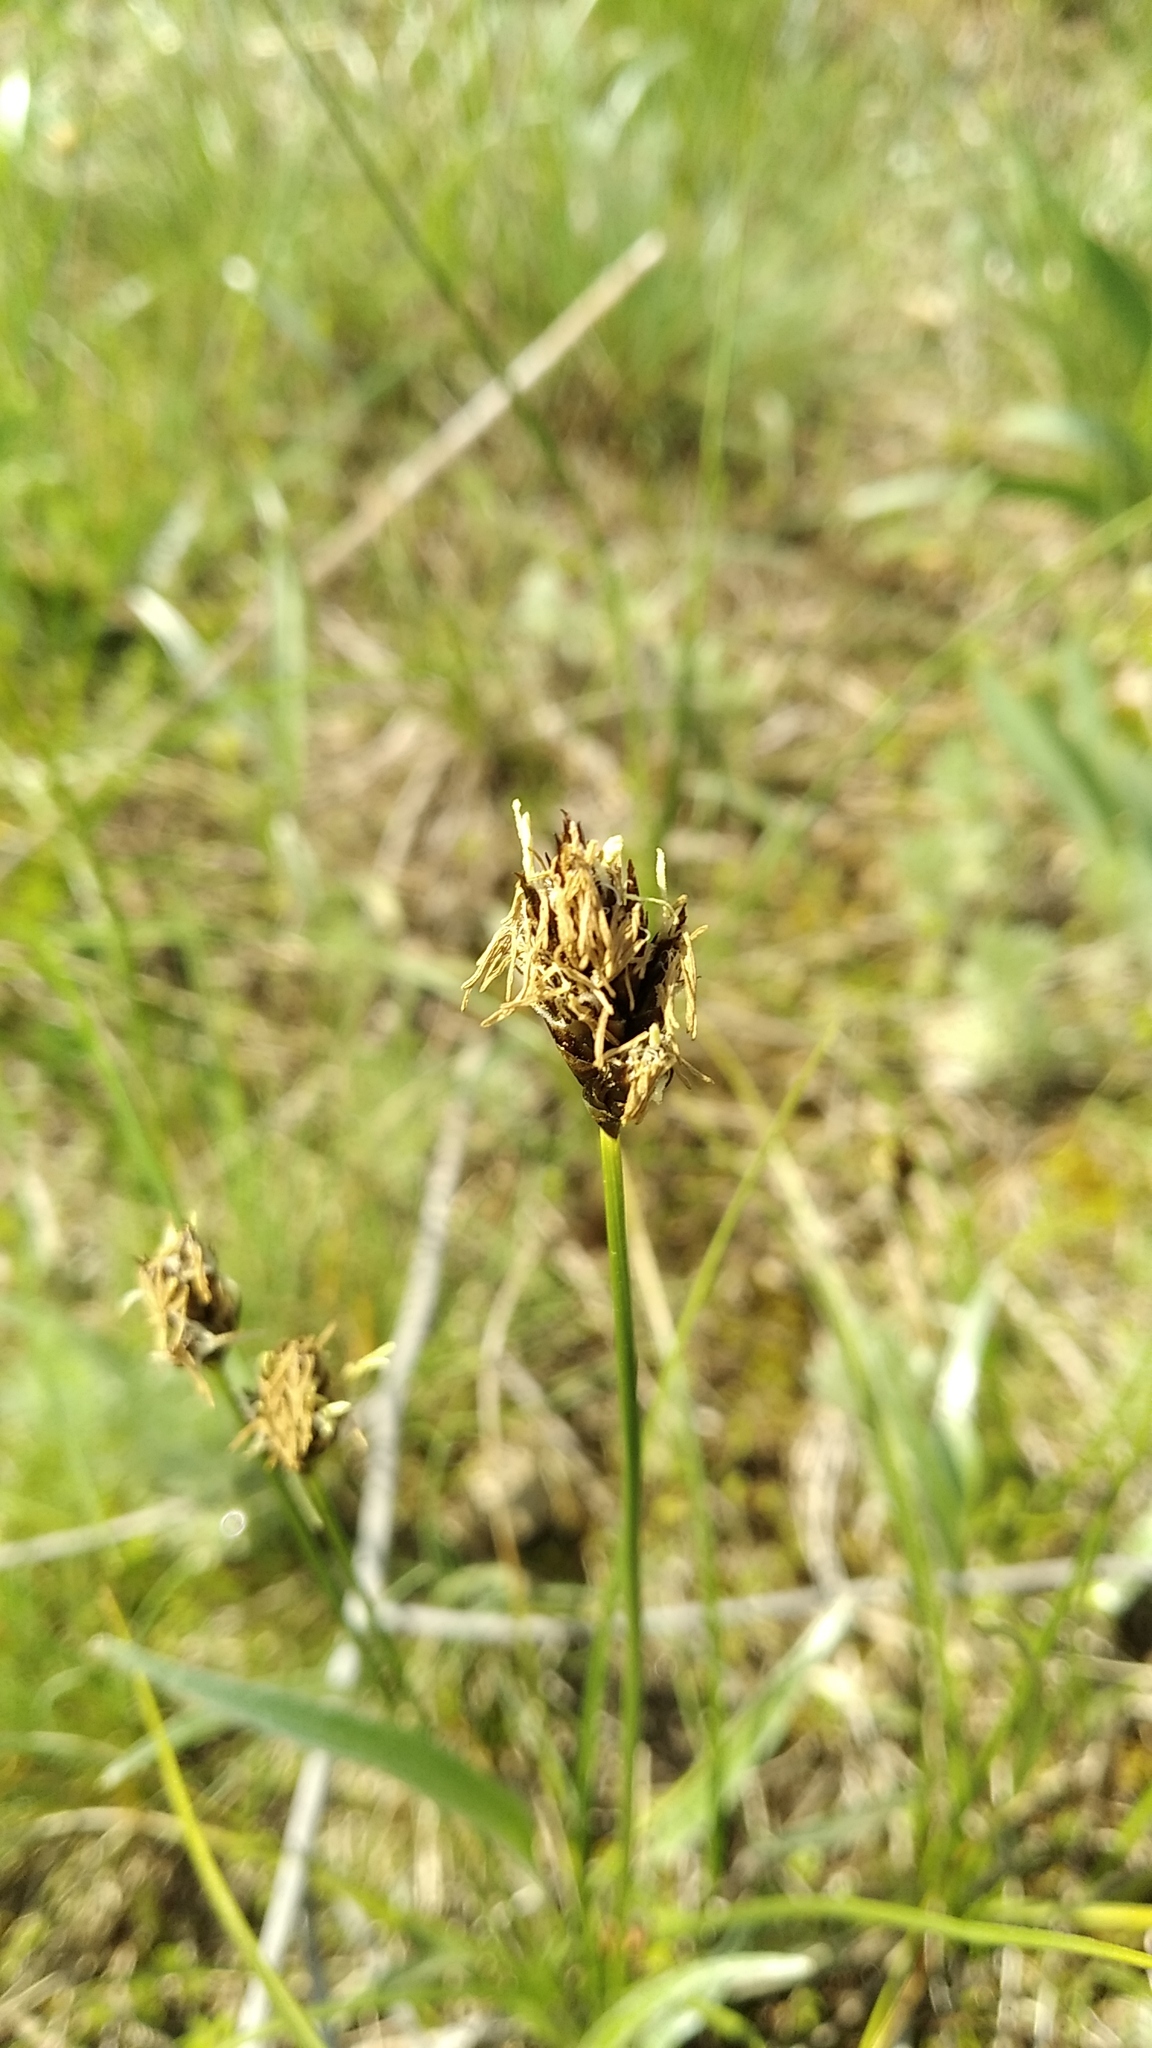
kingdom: Plantae
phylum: Tracheophyta
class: Liliopsida
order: Poales
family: Cyperaceae
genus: Carex
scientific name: Carex stenophylla
